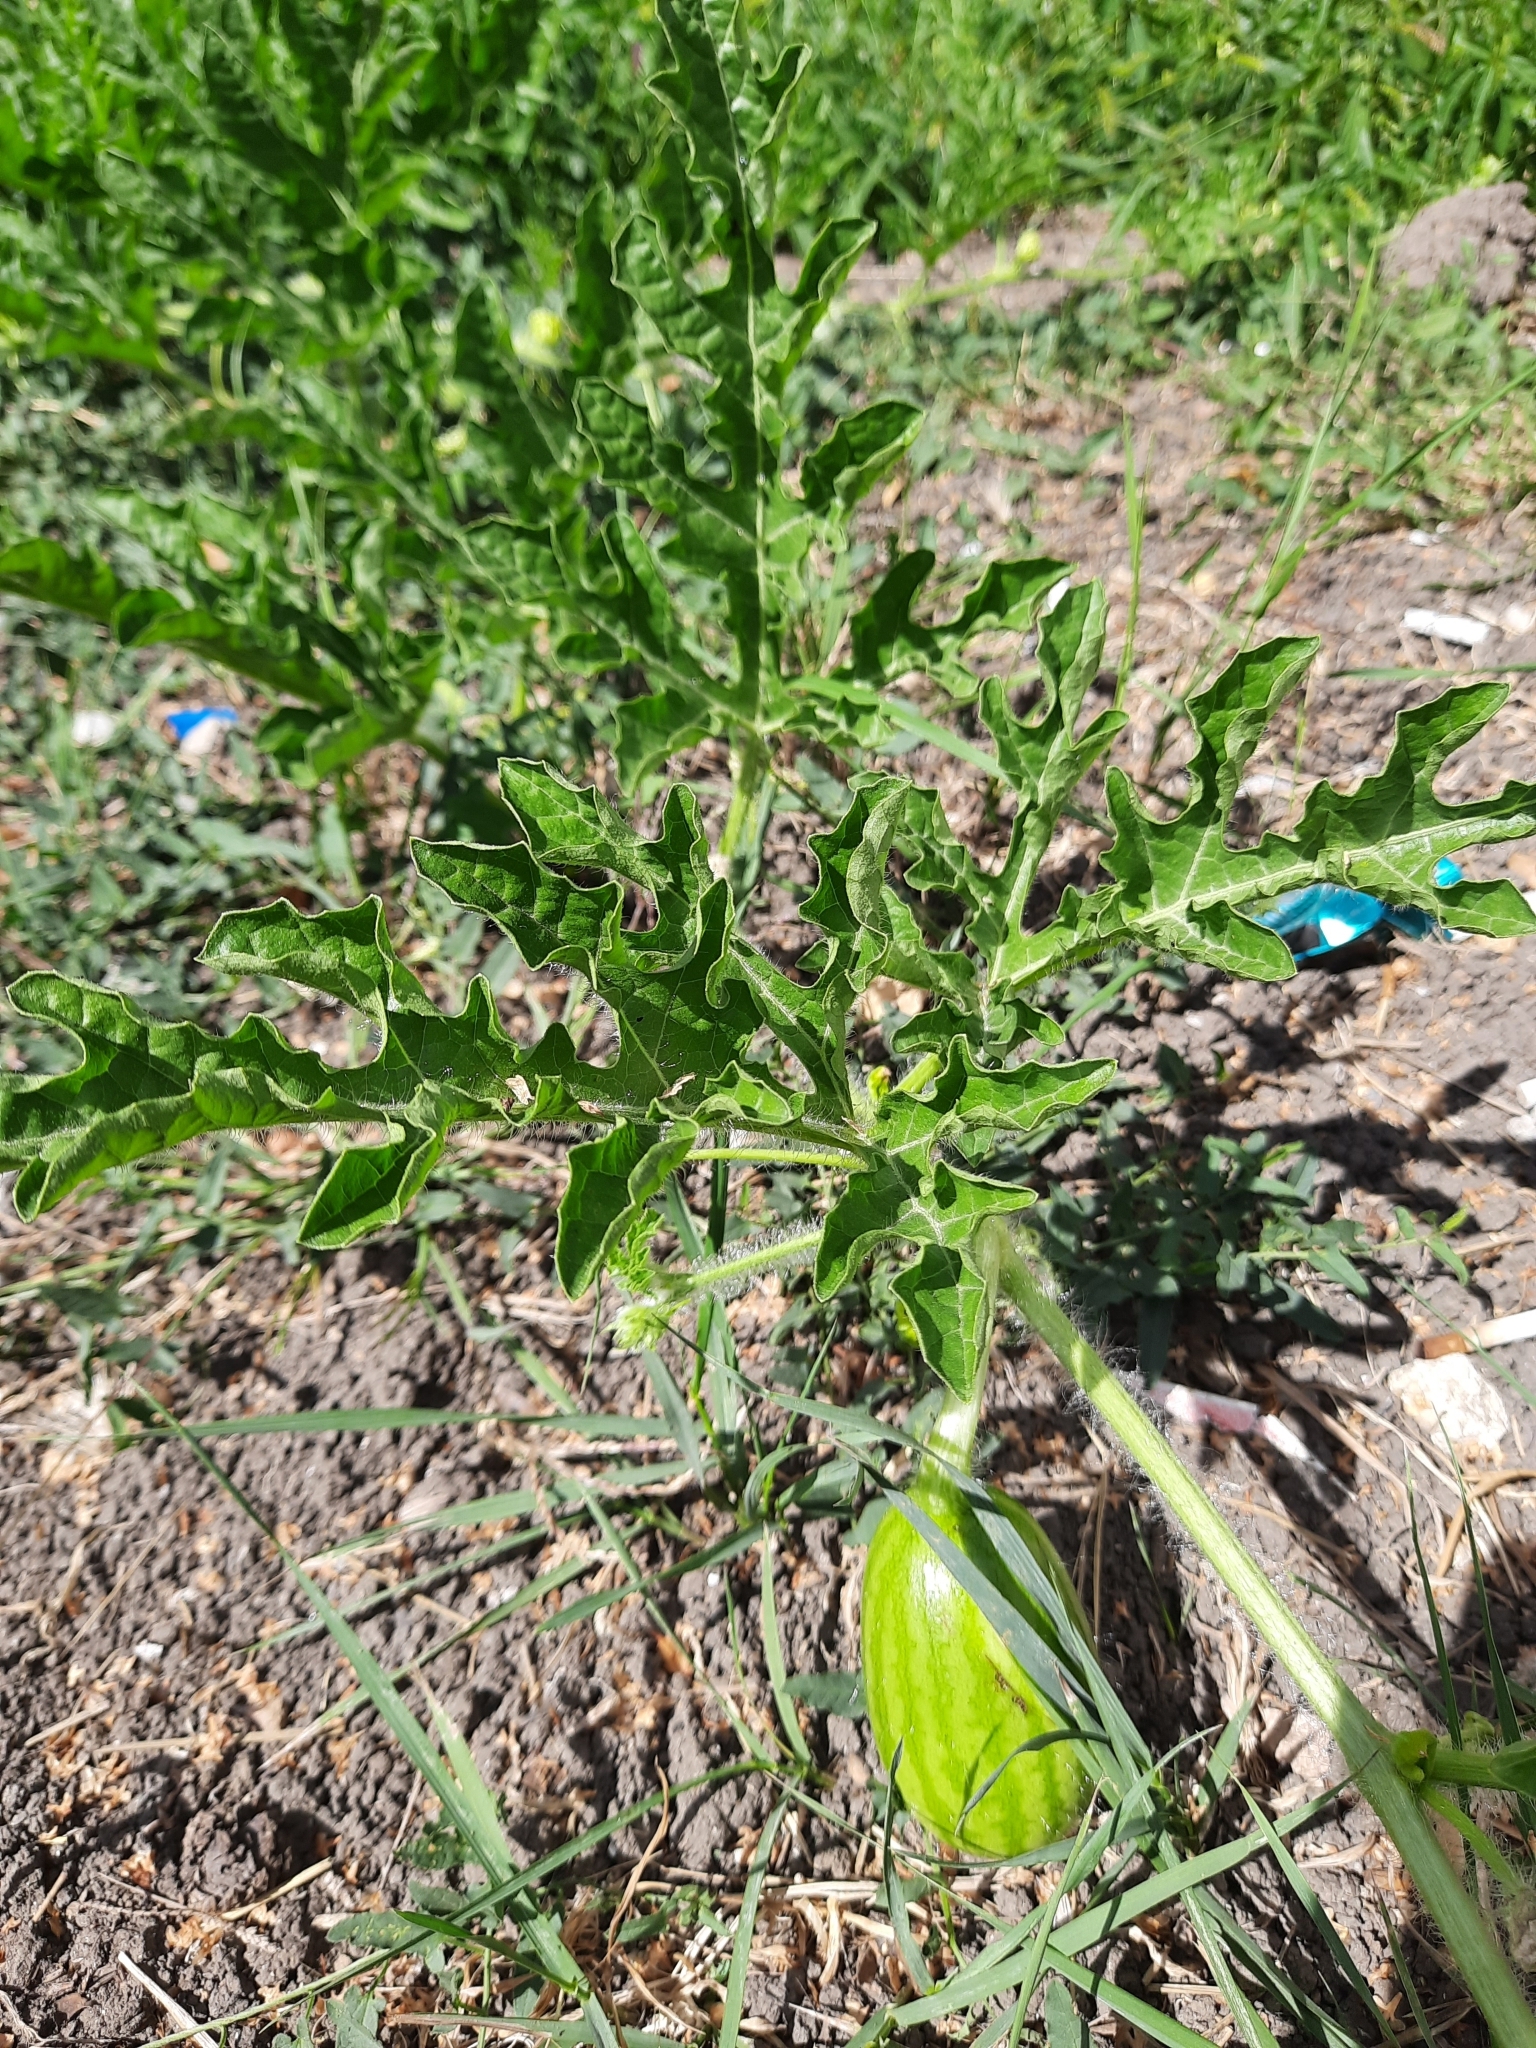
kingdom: Plantae
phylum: Tracheophyta
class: Magnoliopsida
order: Cucurbitales
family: Cucurbitaceae
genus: Citrullus
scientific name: Citrullus lanatus
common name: Watermelon
